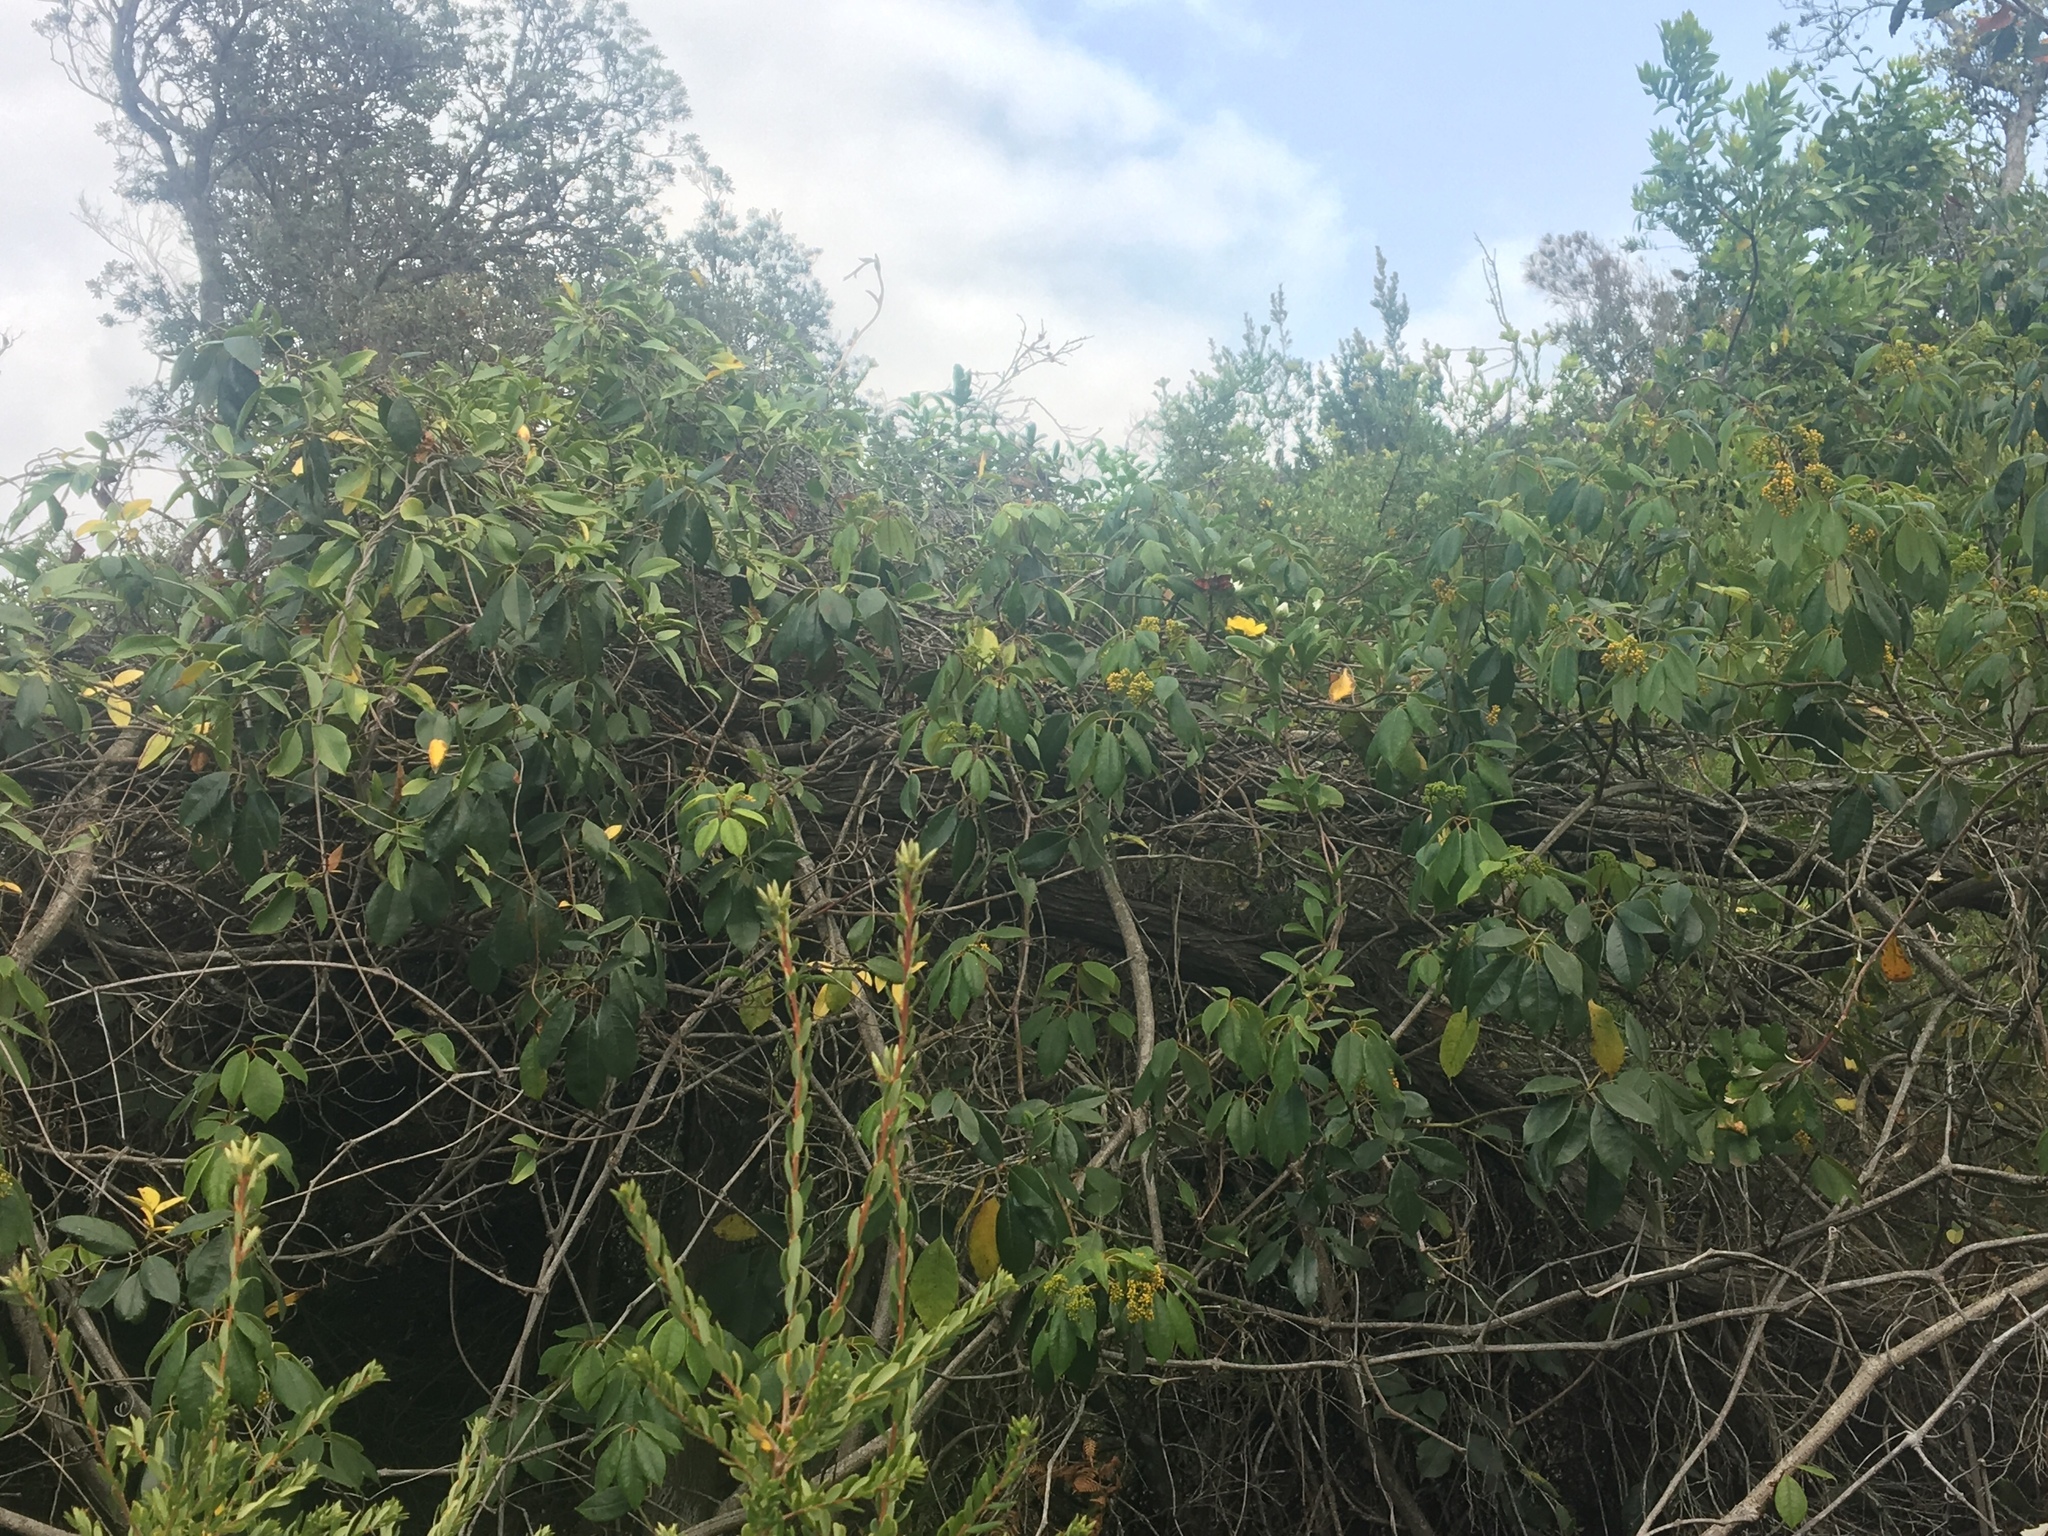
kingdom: Plantae
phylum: Tracheophyta
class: Magnoliopsida
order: Vitales
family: Vitaceae
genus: Nothocissus
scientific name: Nothocissus hypoglauca
